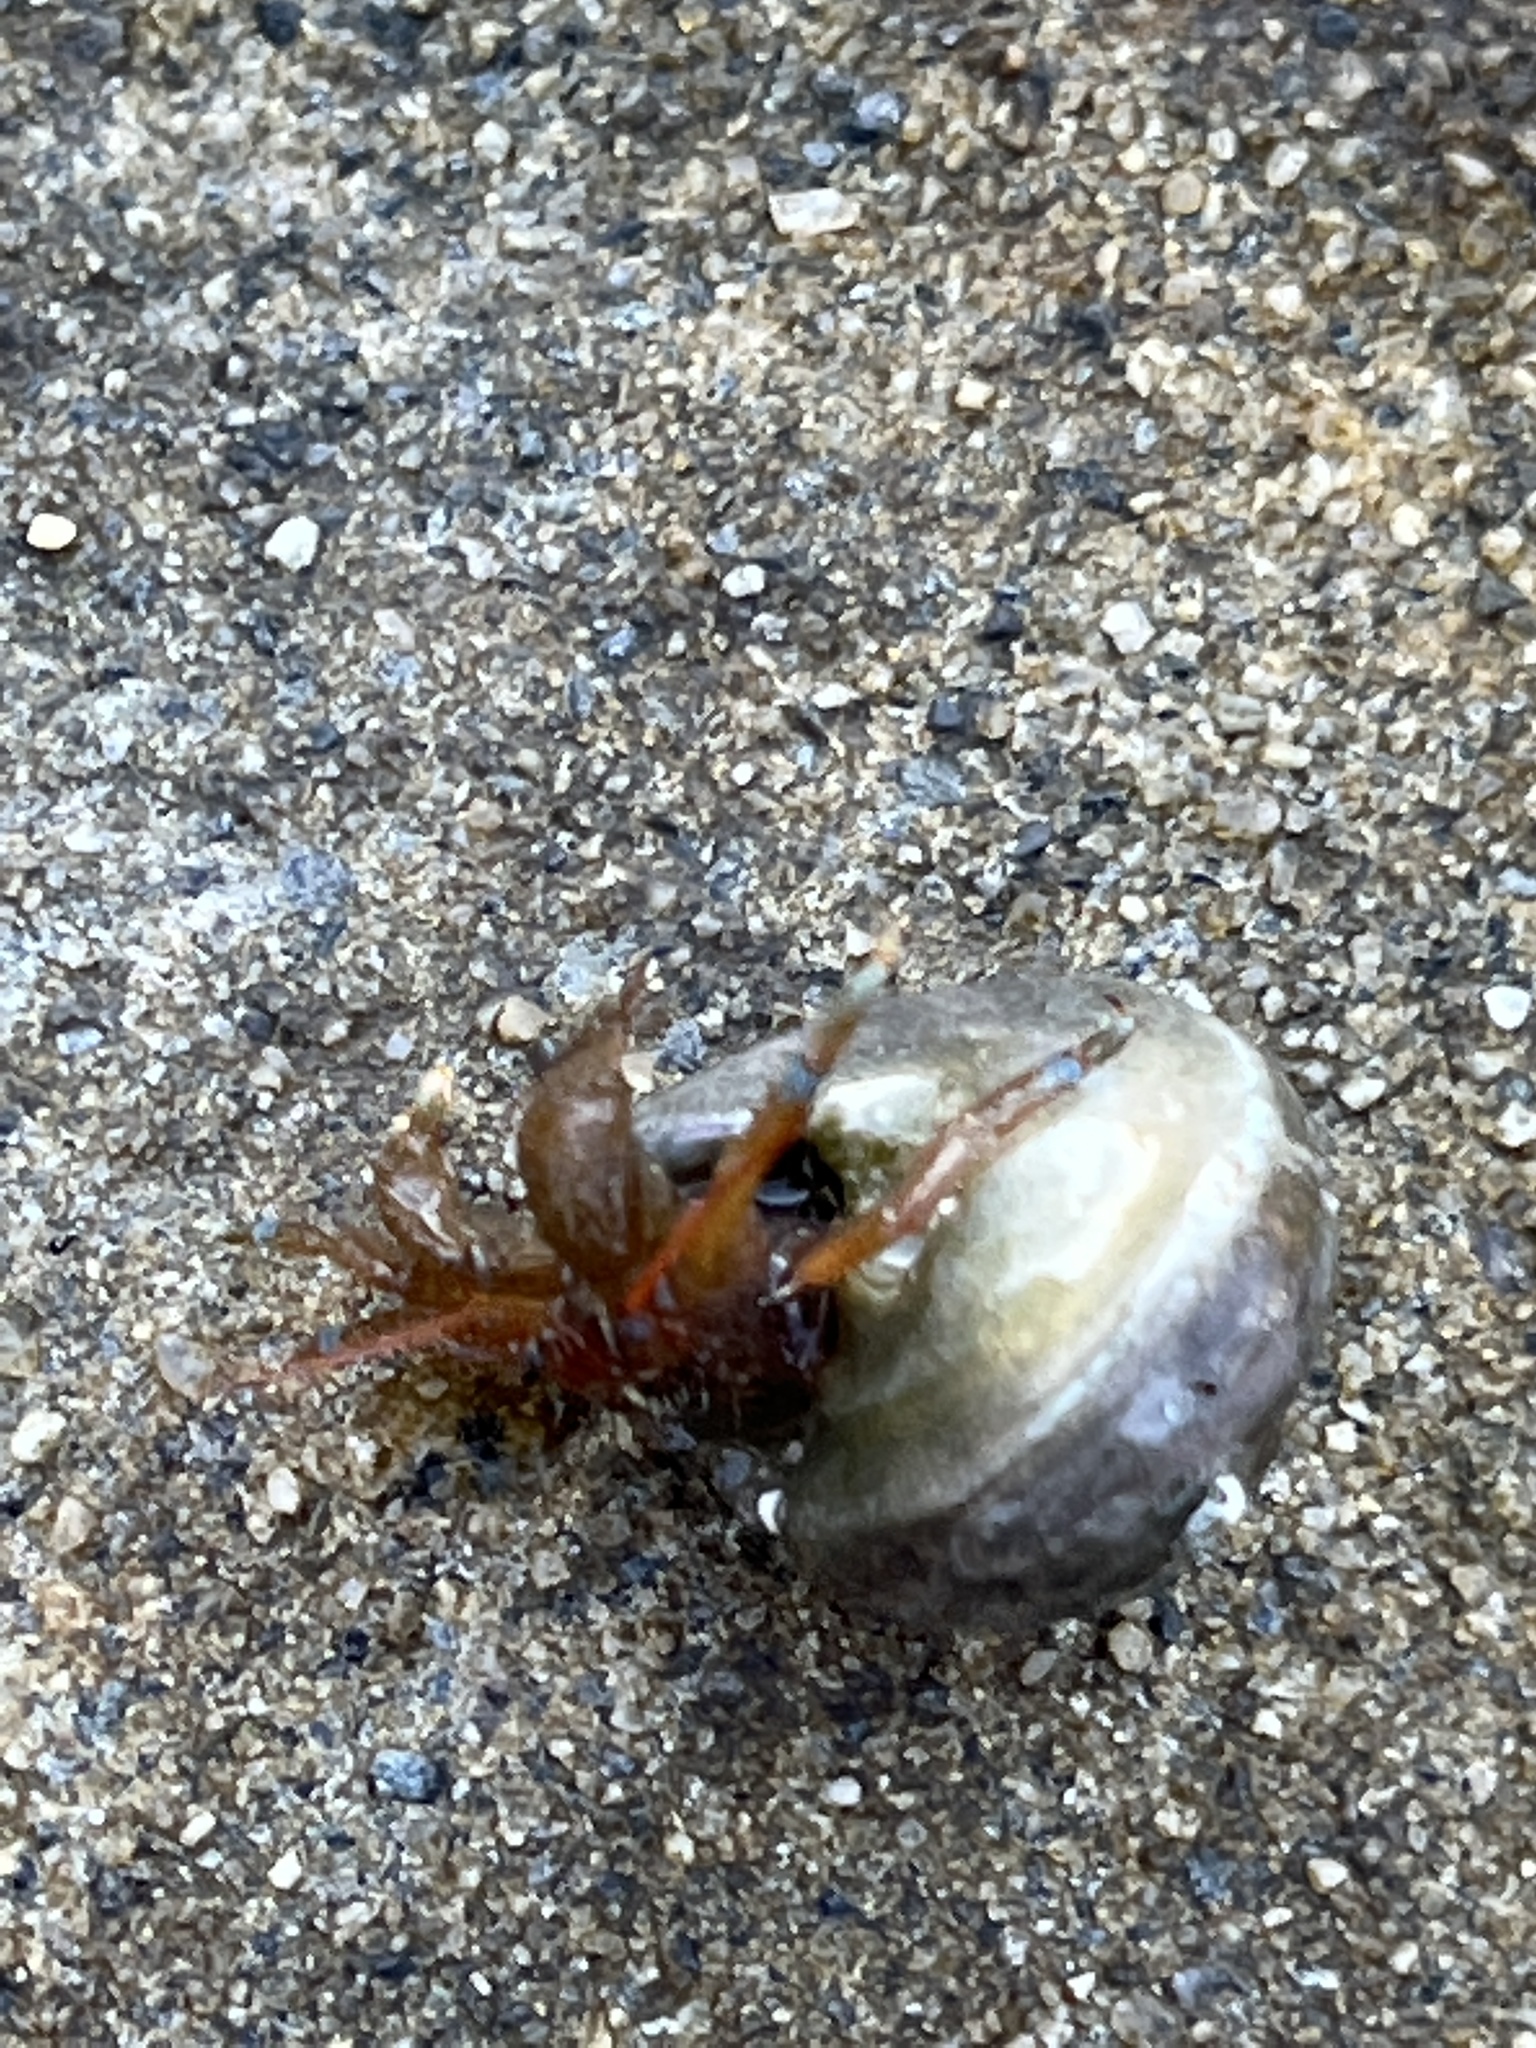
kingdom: Animalia
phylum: Arthropoda
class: Malacostraca
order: Decapoda
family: Paguridae
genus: Pagurus
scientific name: Pagurus samuelis
